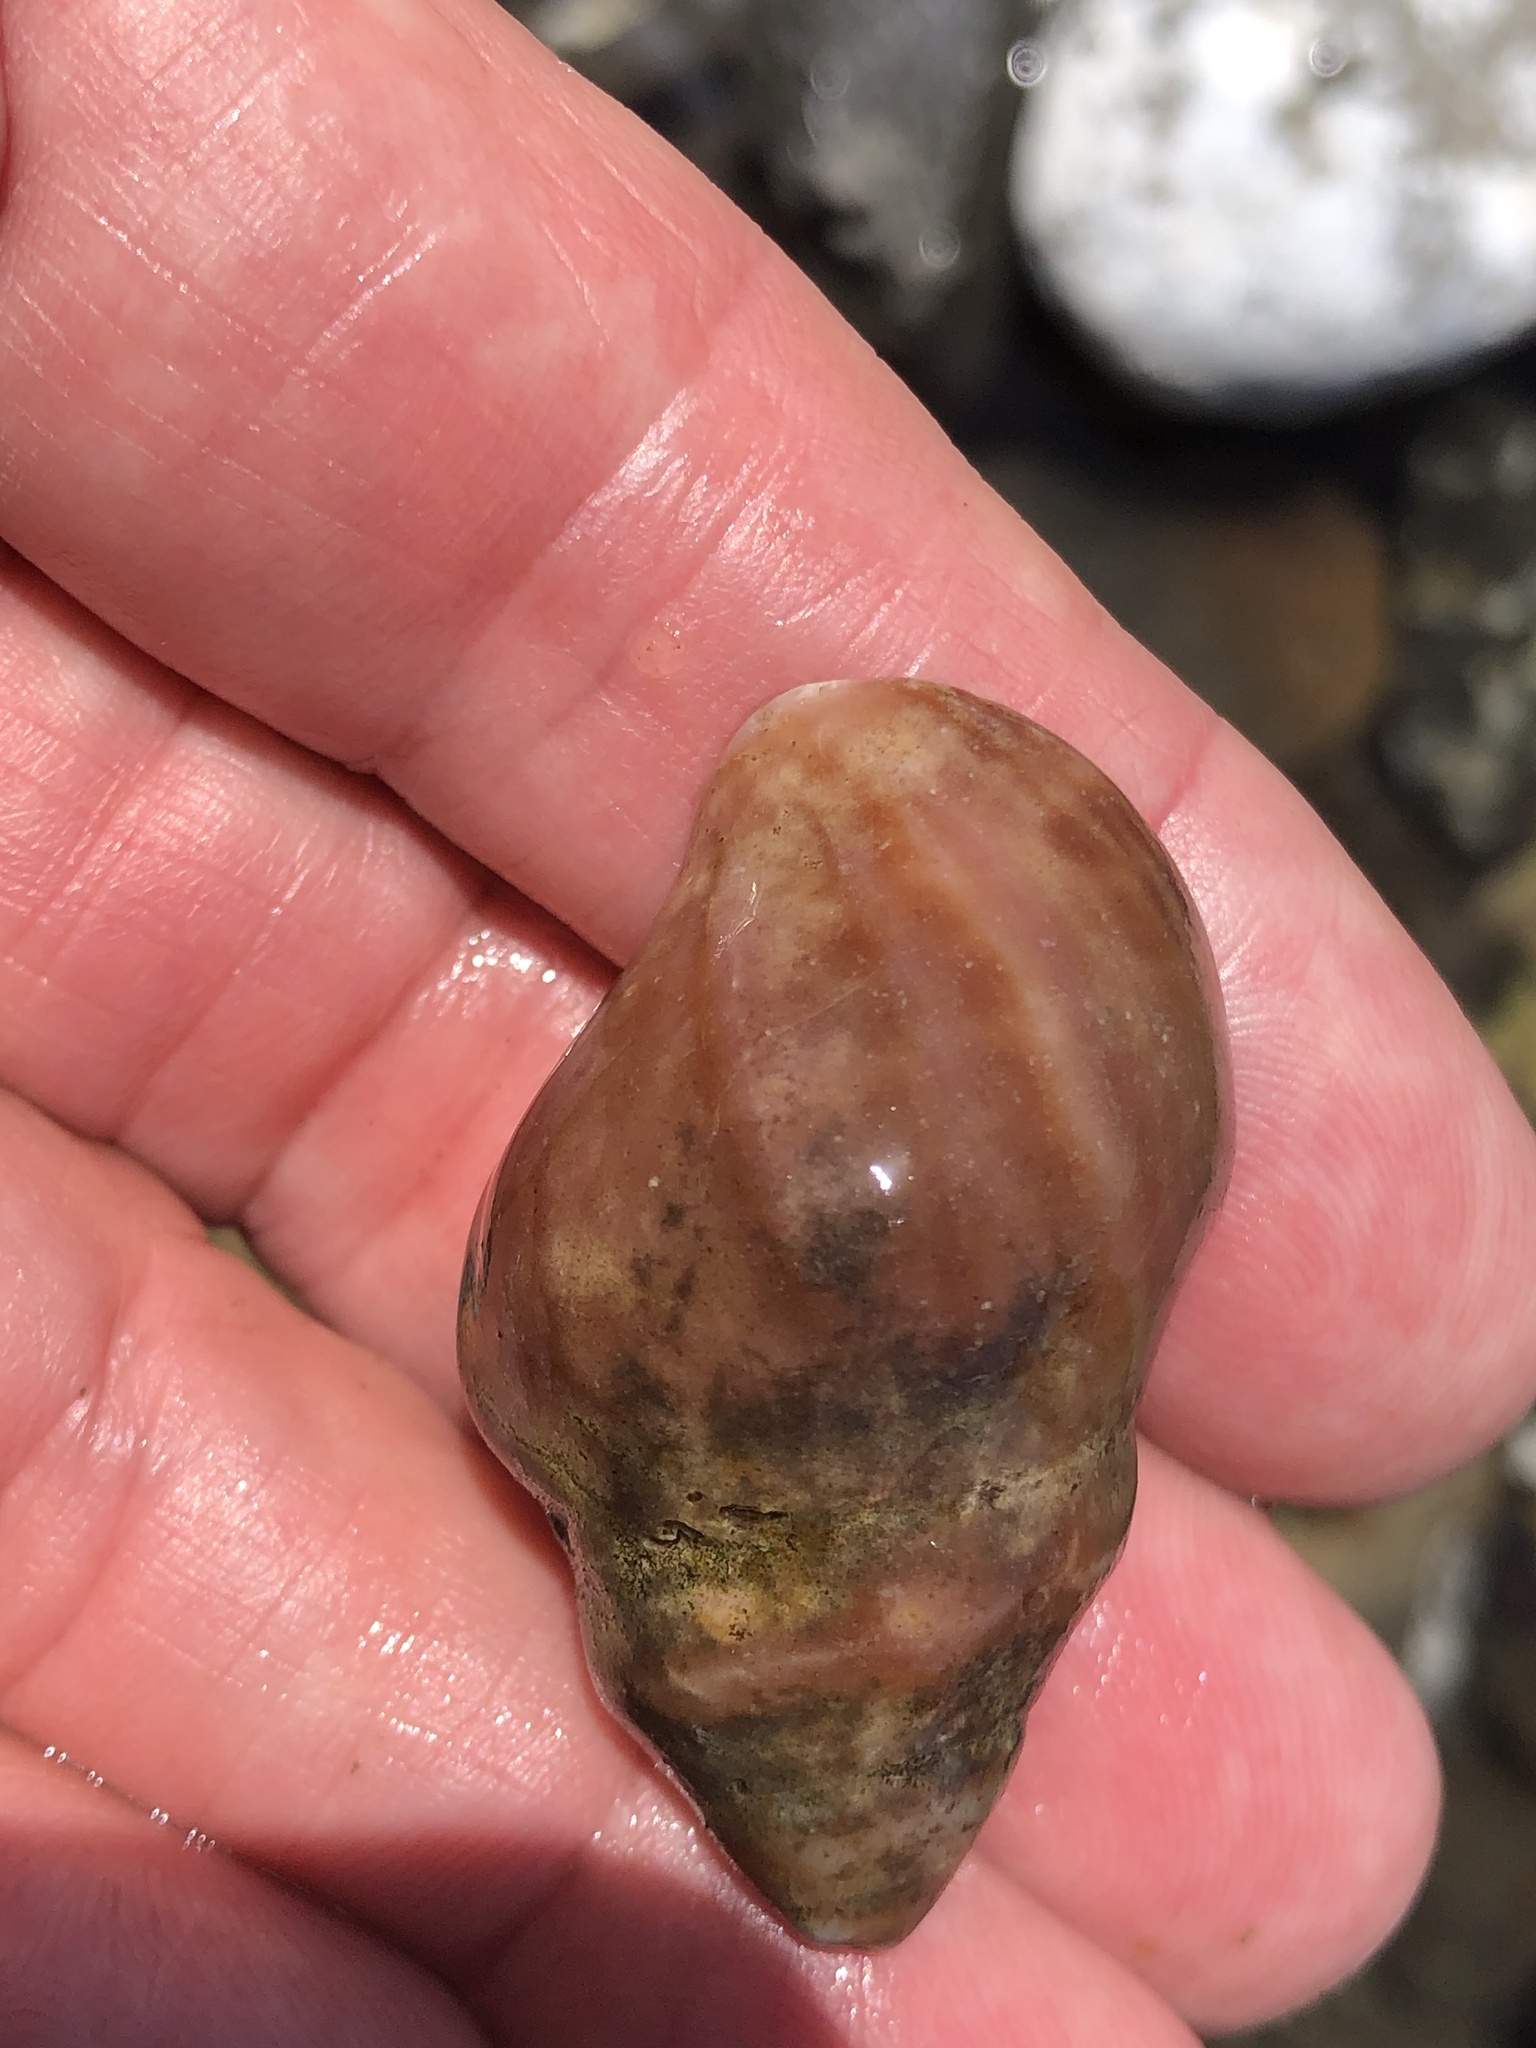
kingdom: Animalia
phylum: Mollusca
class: Gastropoda
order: Neogastropoda
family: Muricidae
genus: Nucella
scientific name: Nucella lamellosa
